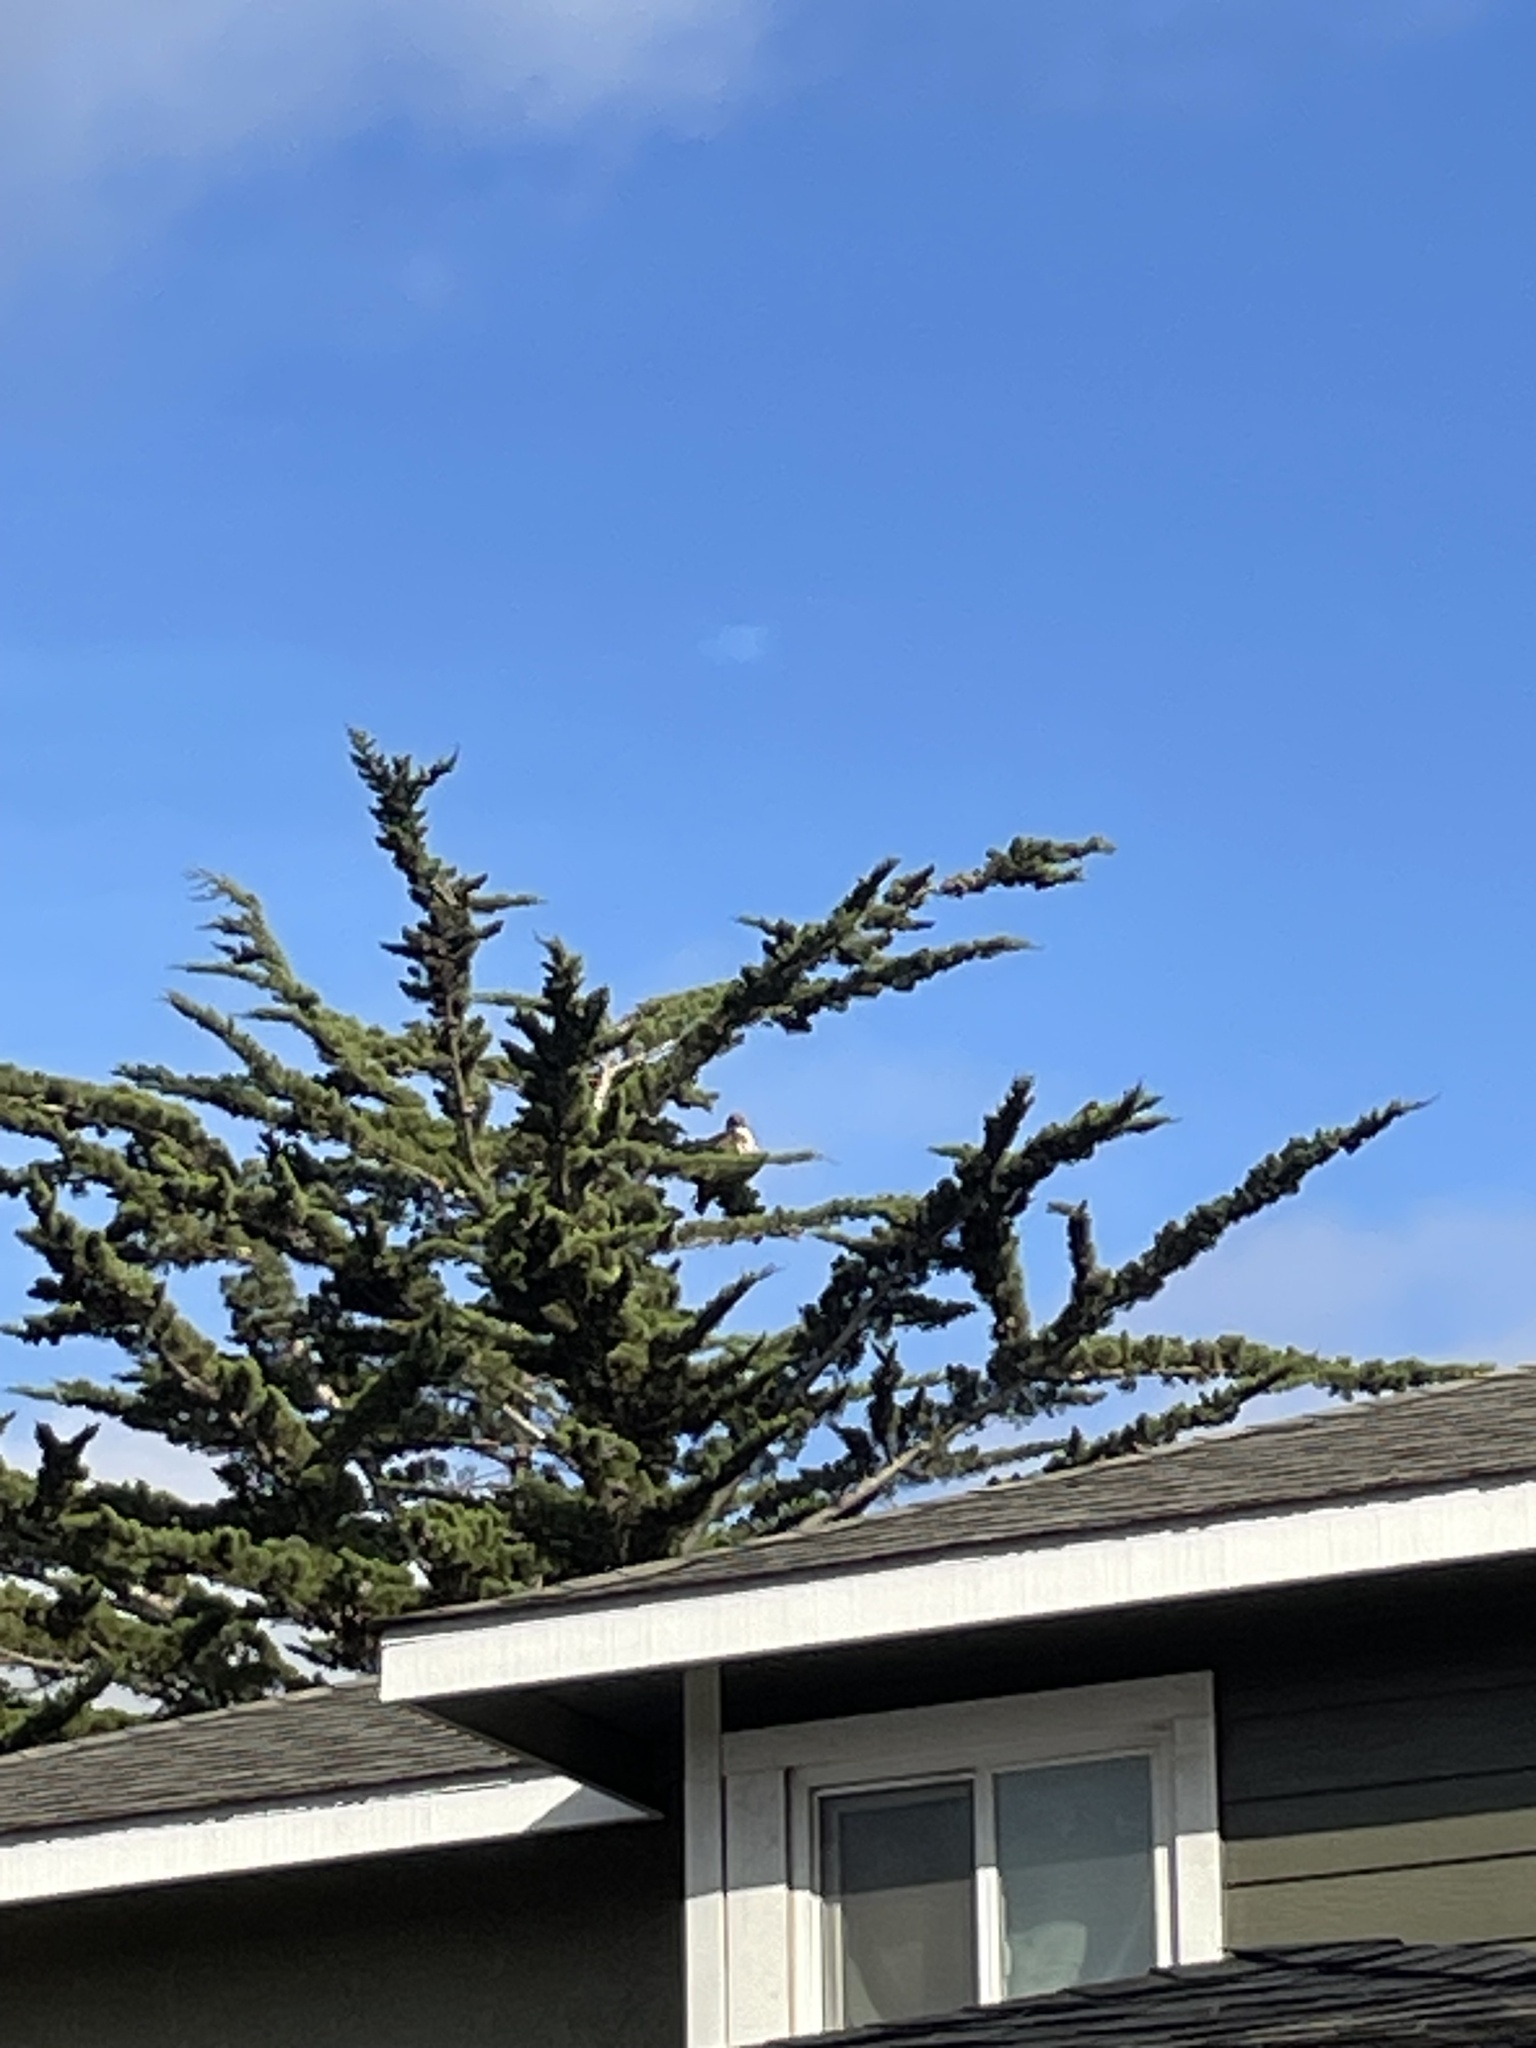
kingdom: Animalia
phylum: Chordata
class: Aves
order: Accipitriformes
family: Accipitridae
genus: Buteo
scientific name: Buteo jamaicensis
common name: Red-tailed hawk
